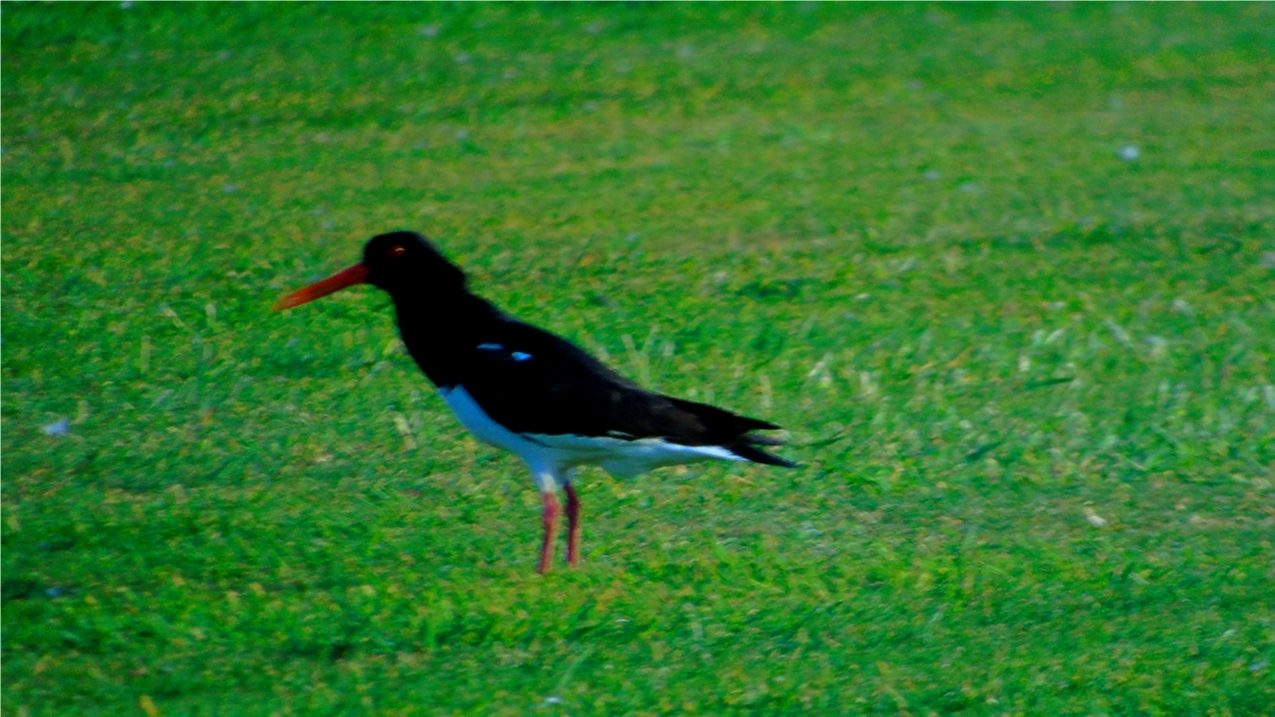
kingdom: Animalia
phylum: Chordata
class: Aves
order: Charadriiformes
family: Haematopodidae
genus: Haematopus
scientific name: Haematopus ostralegus
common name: Eurasian oystercatcher
